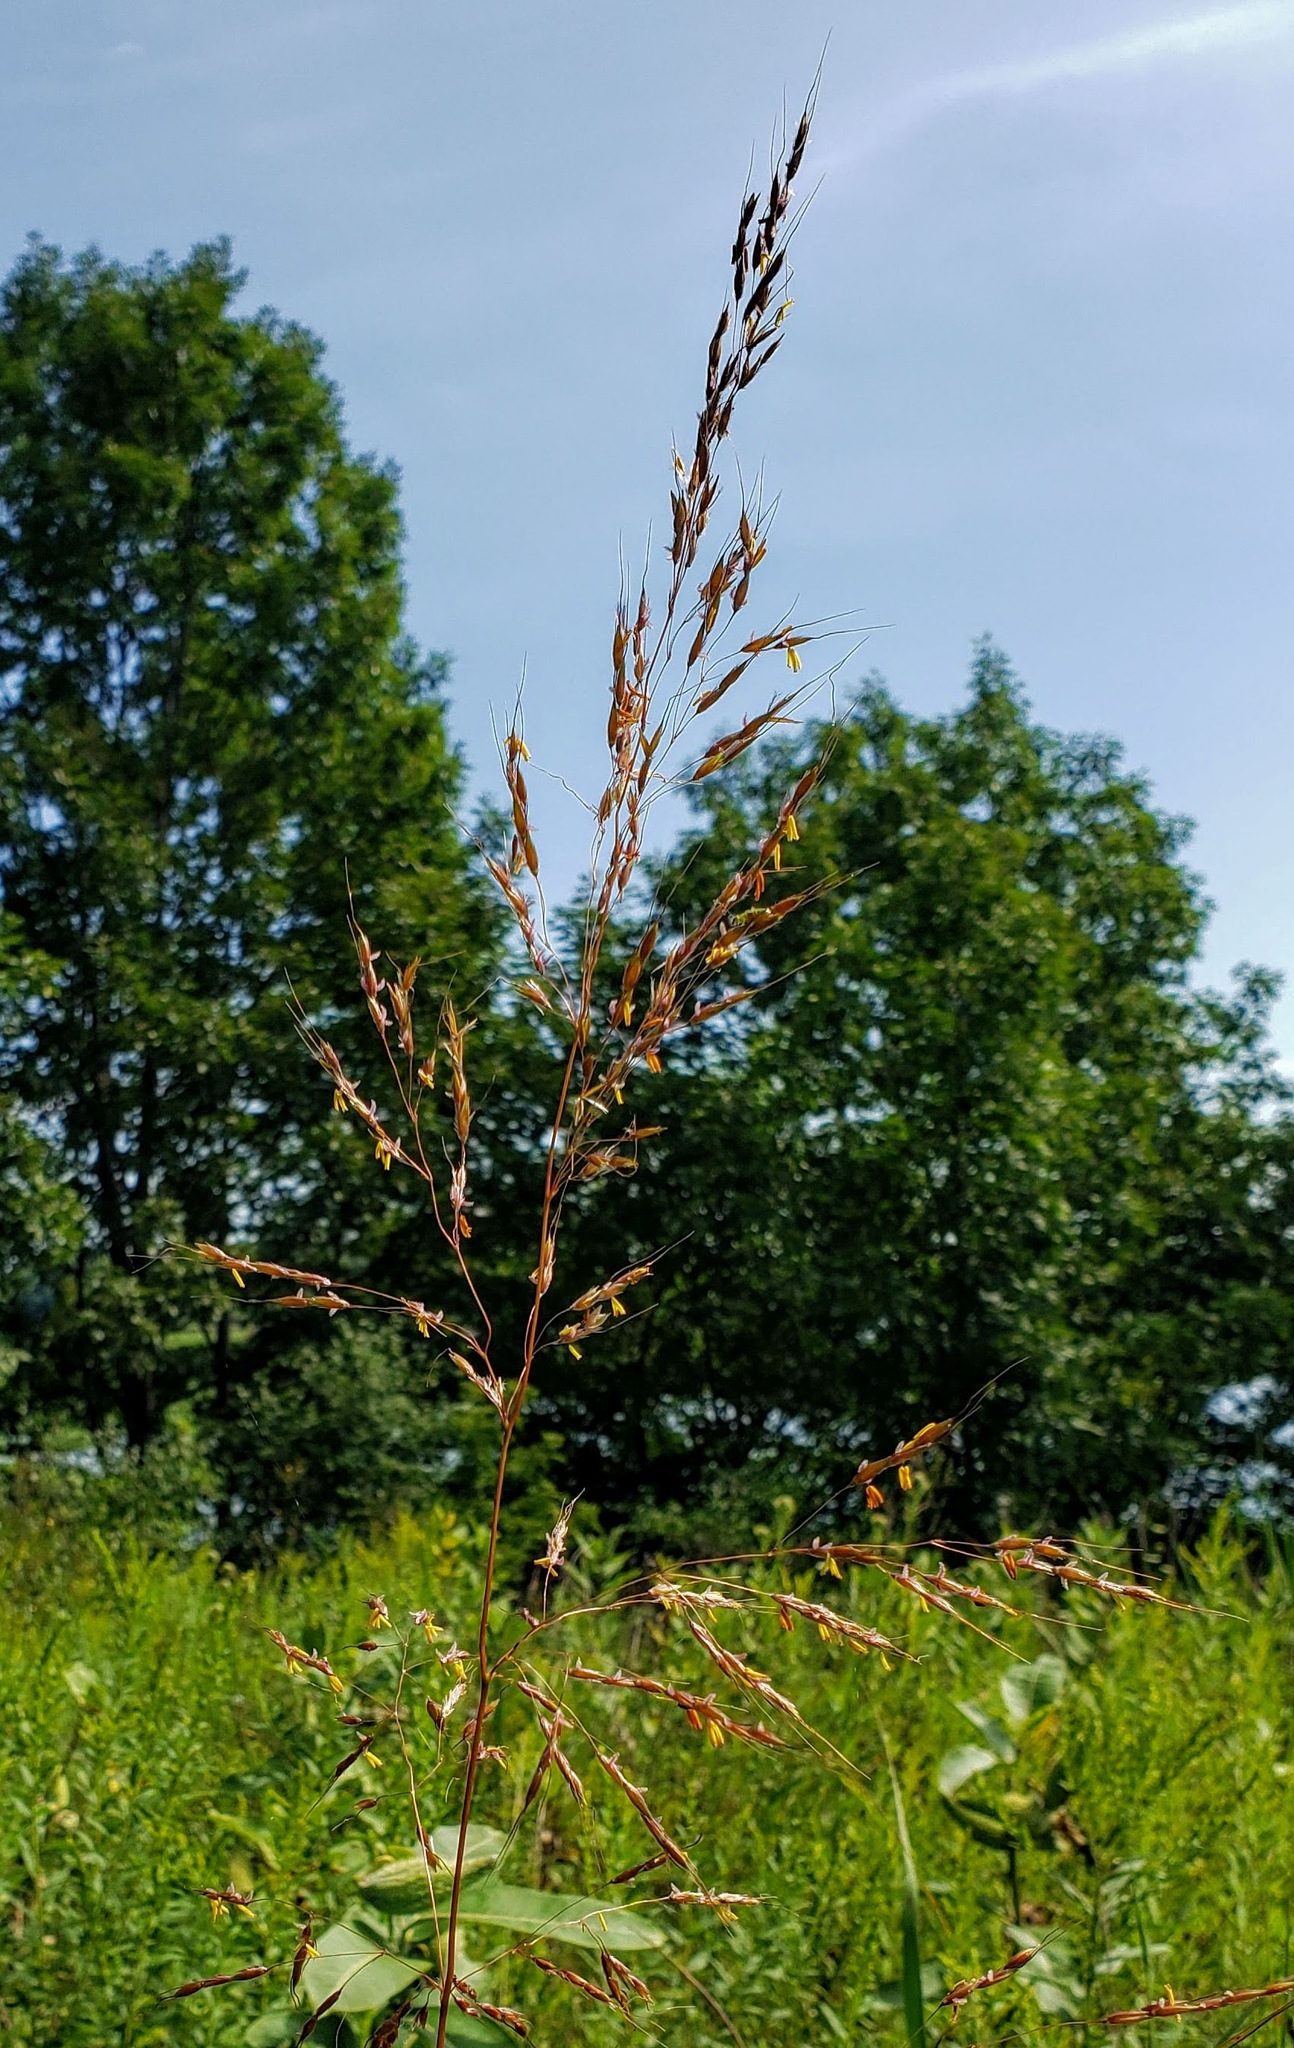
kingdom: Plantae
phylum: Tracheophyta
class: Liliopsida
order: Poales
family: Poaceae
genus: Sorghastrum
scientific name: Sorghastrum nutans
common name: Indian grass
